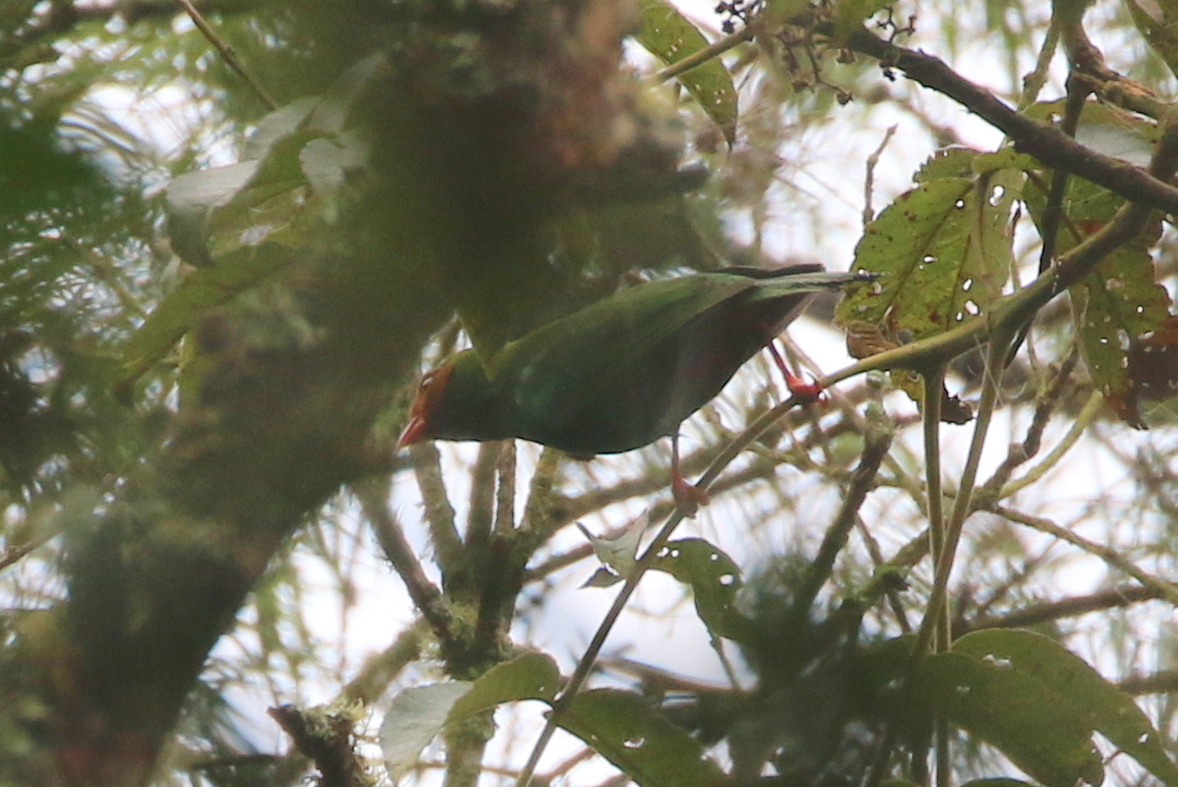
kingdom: Animalia
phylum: Chordata
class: Aves
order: Passeriformes
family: Thraupidae
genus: Chlorornis
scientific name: Chlorornis riefferii
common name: Grass-green tanager
